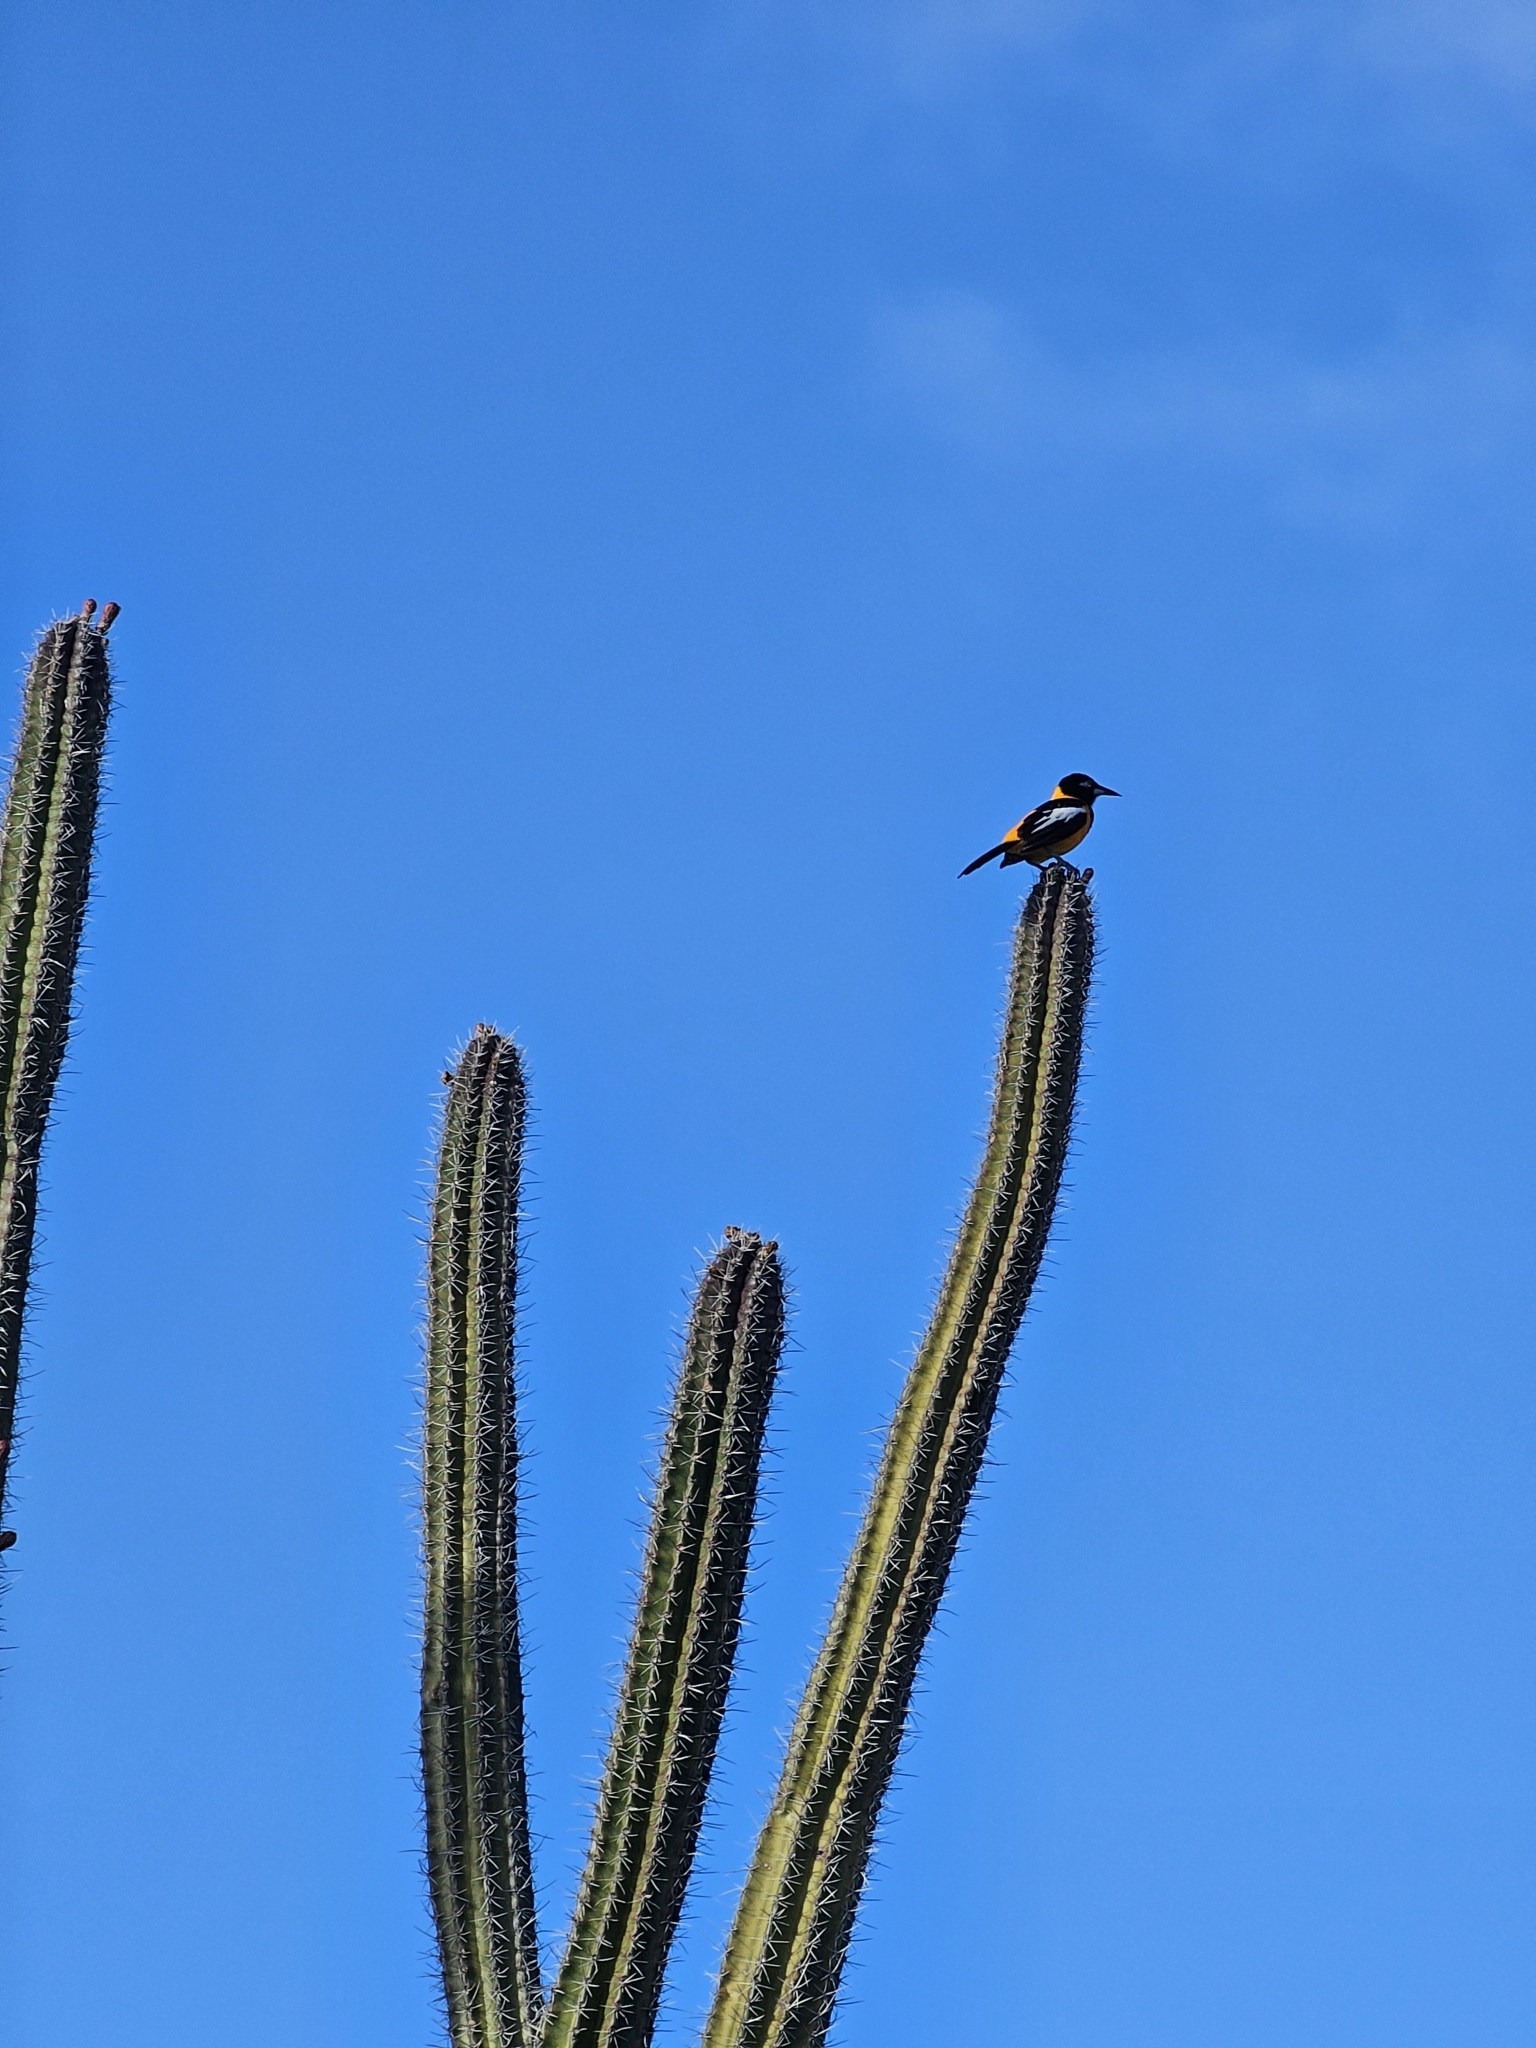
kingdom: Animalia
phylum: Chordata
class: Aves
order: Passeriformes
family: Icteridae
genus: Icterus
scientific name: Icterus icterus
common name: Venezuelan troupial
